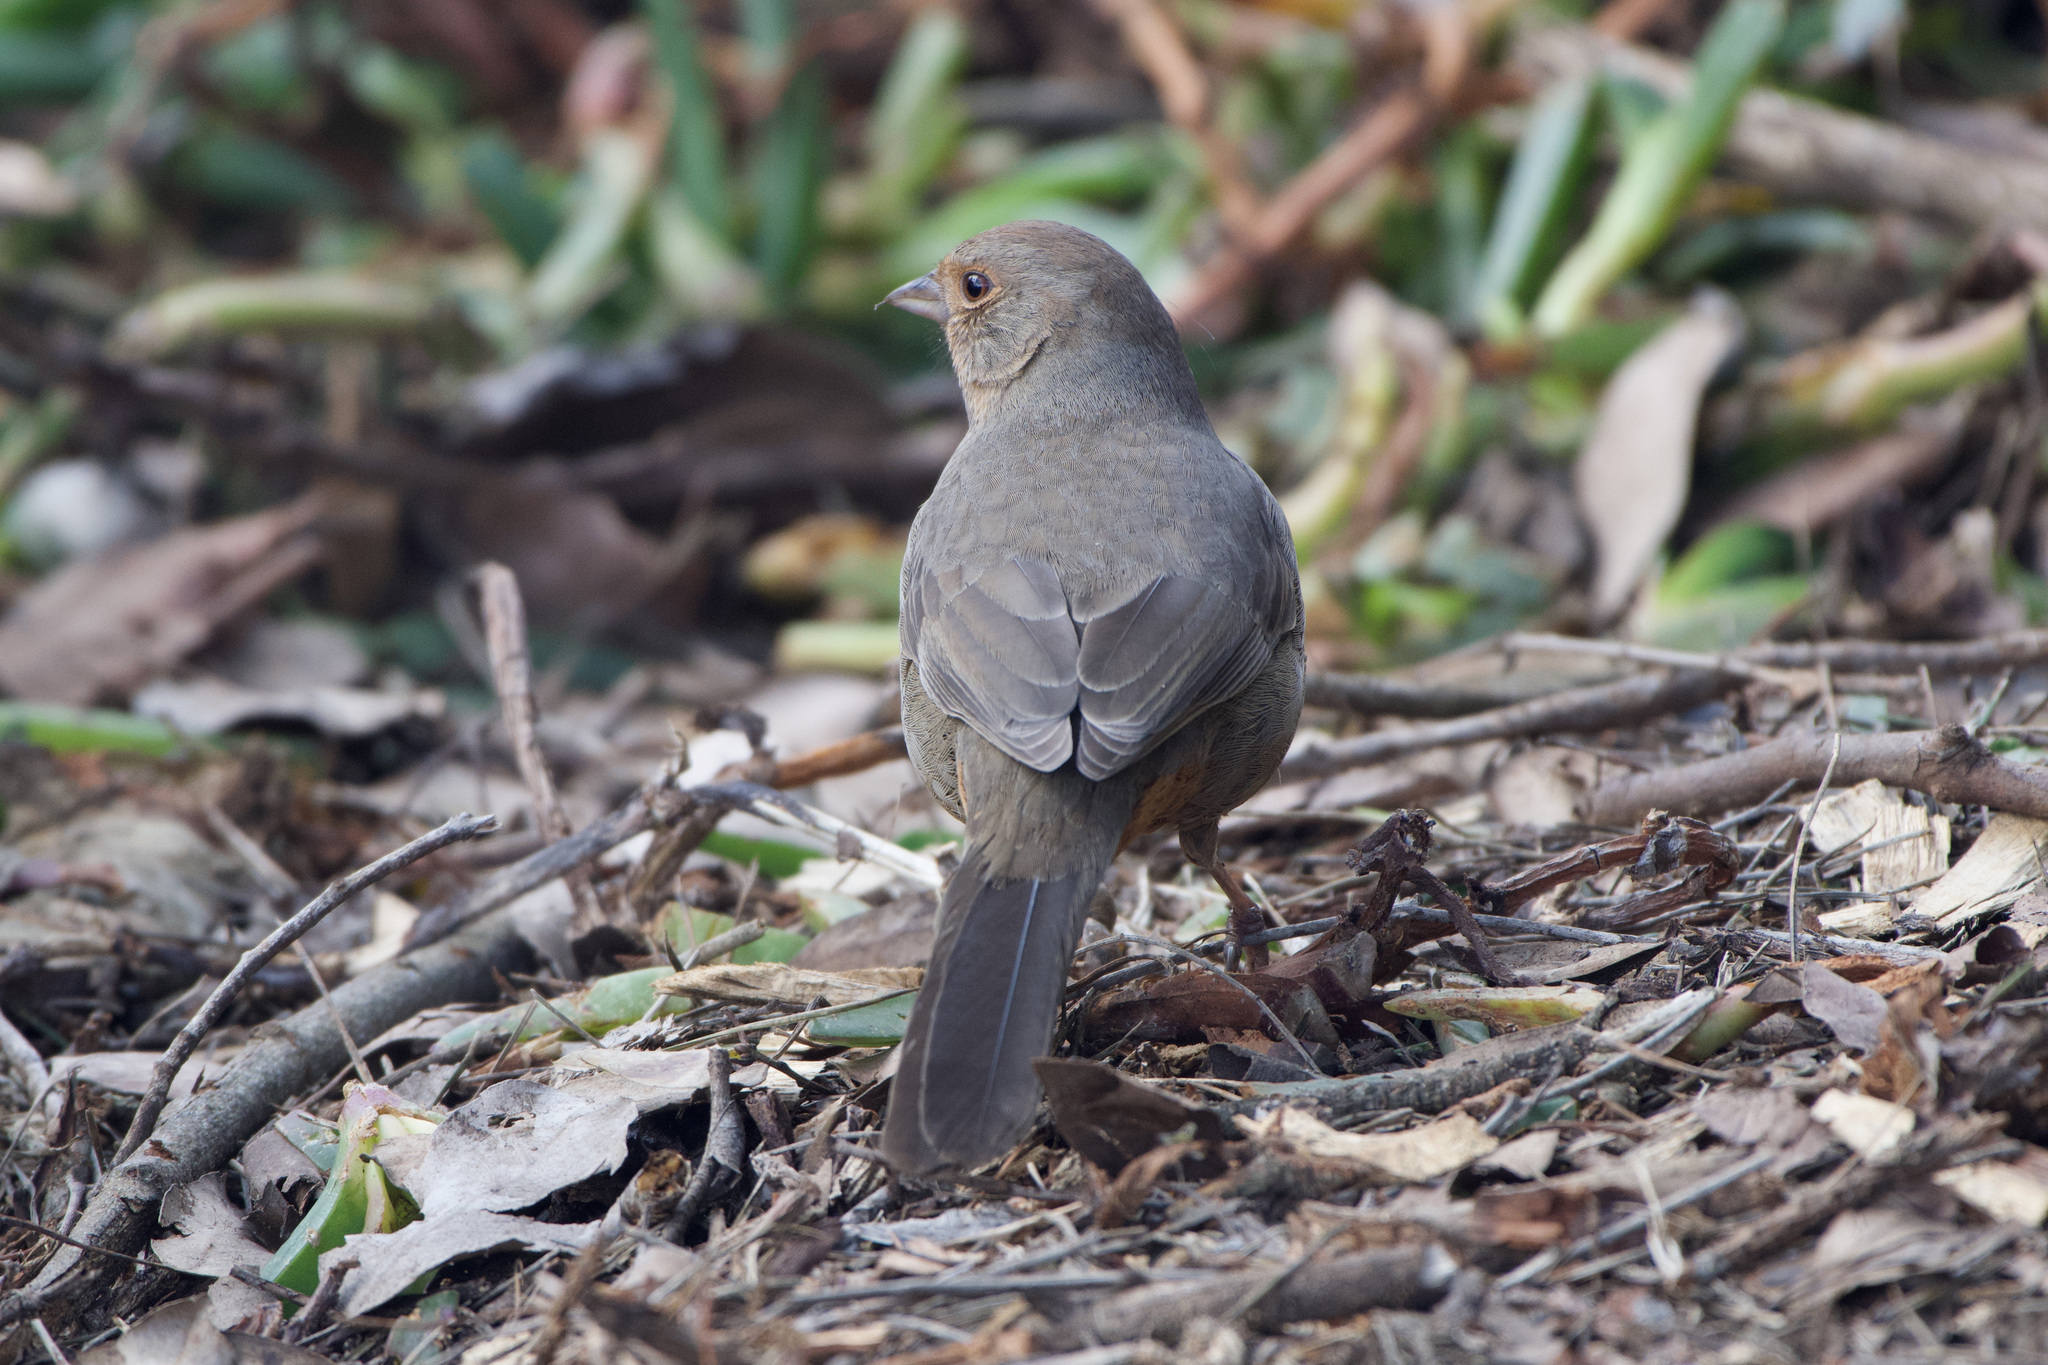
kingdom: Animalia
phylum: Chordata
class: Aves
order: Passeriformes
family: Passerellidae
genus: Melozone
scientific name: Melozone crissalis
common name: California towhee
